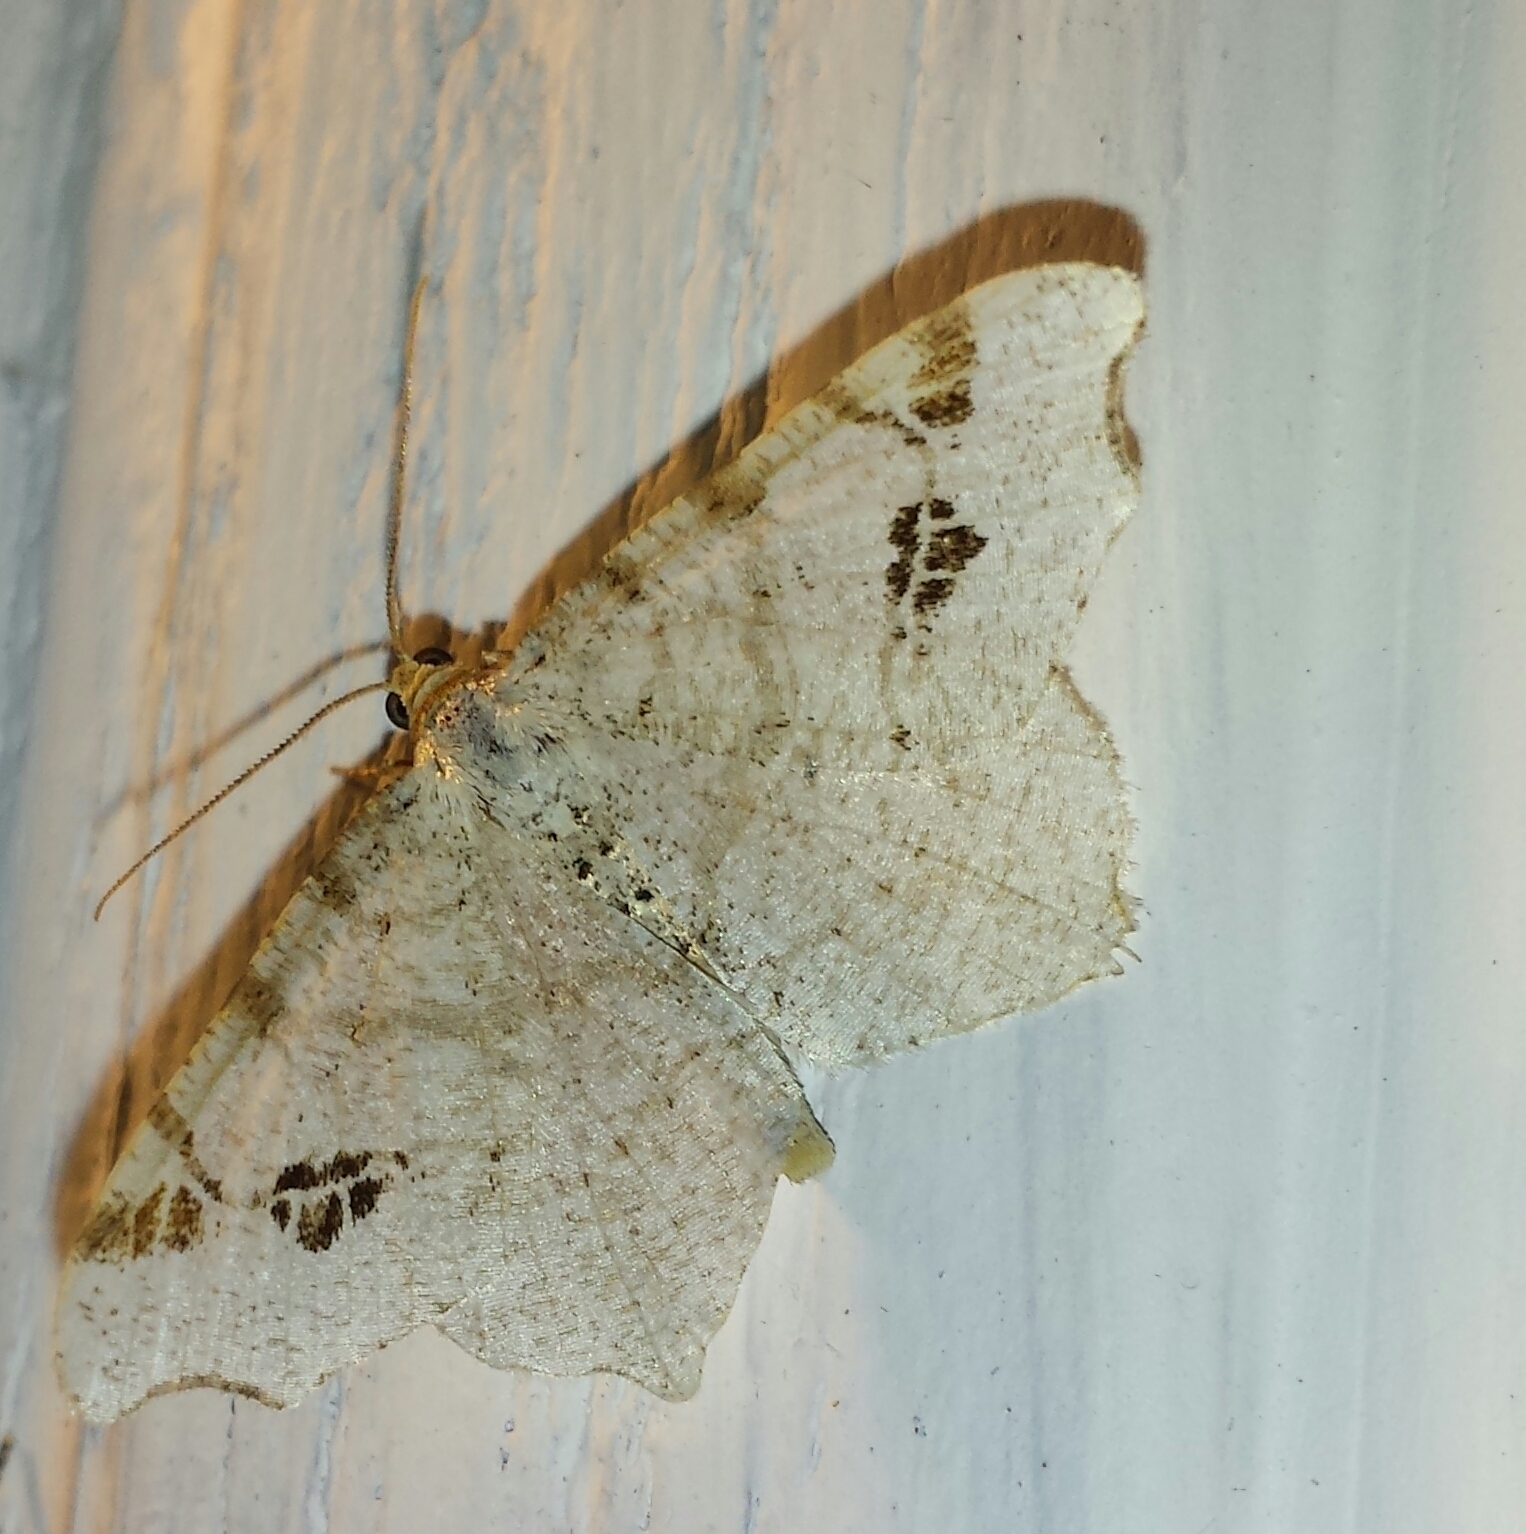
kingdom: Animalia
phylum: Arthropoda
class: Insecta
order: Lepidoptera
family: Geometridae
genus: Macaria
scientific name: Macaria aemulataria
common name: Common angle
